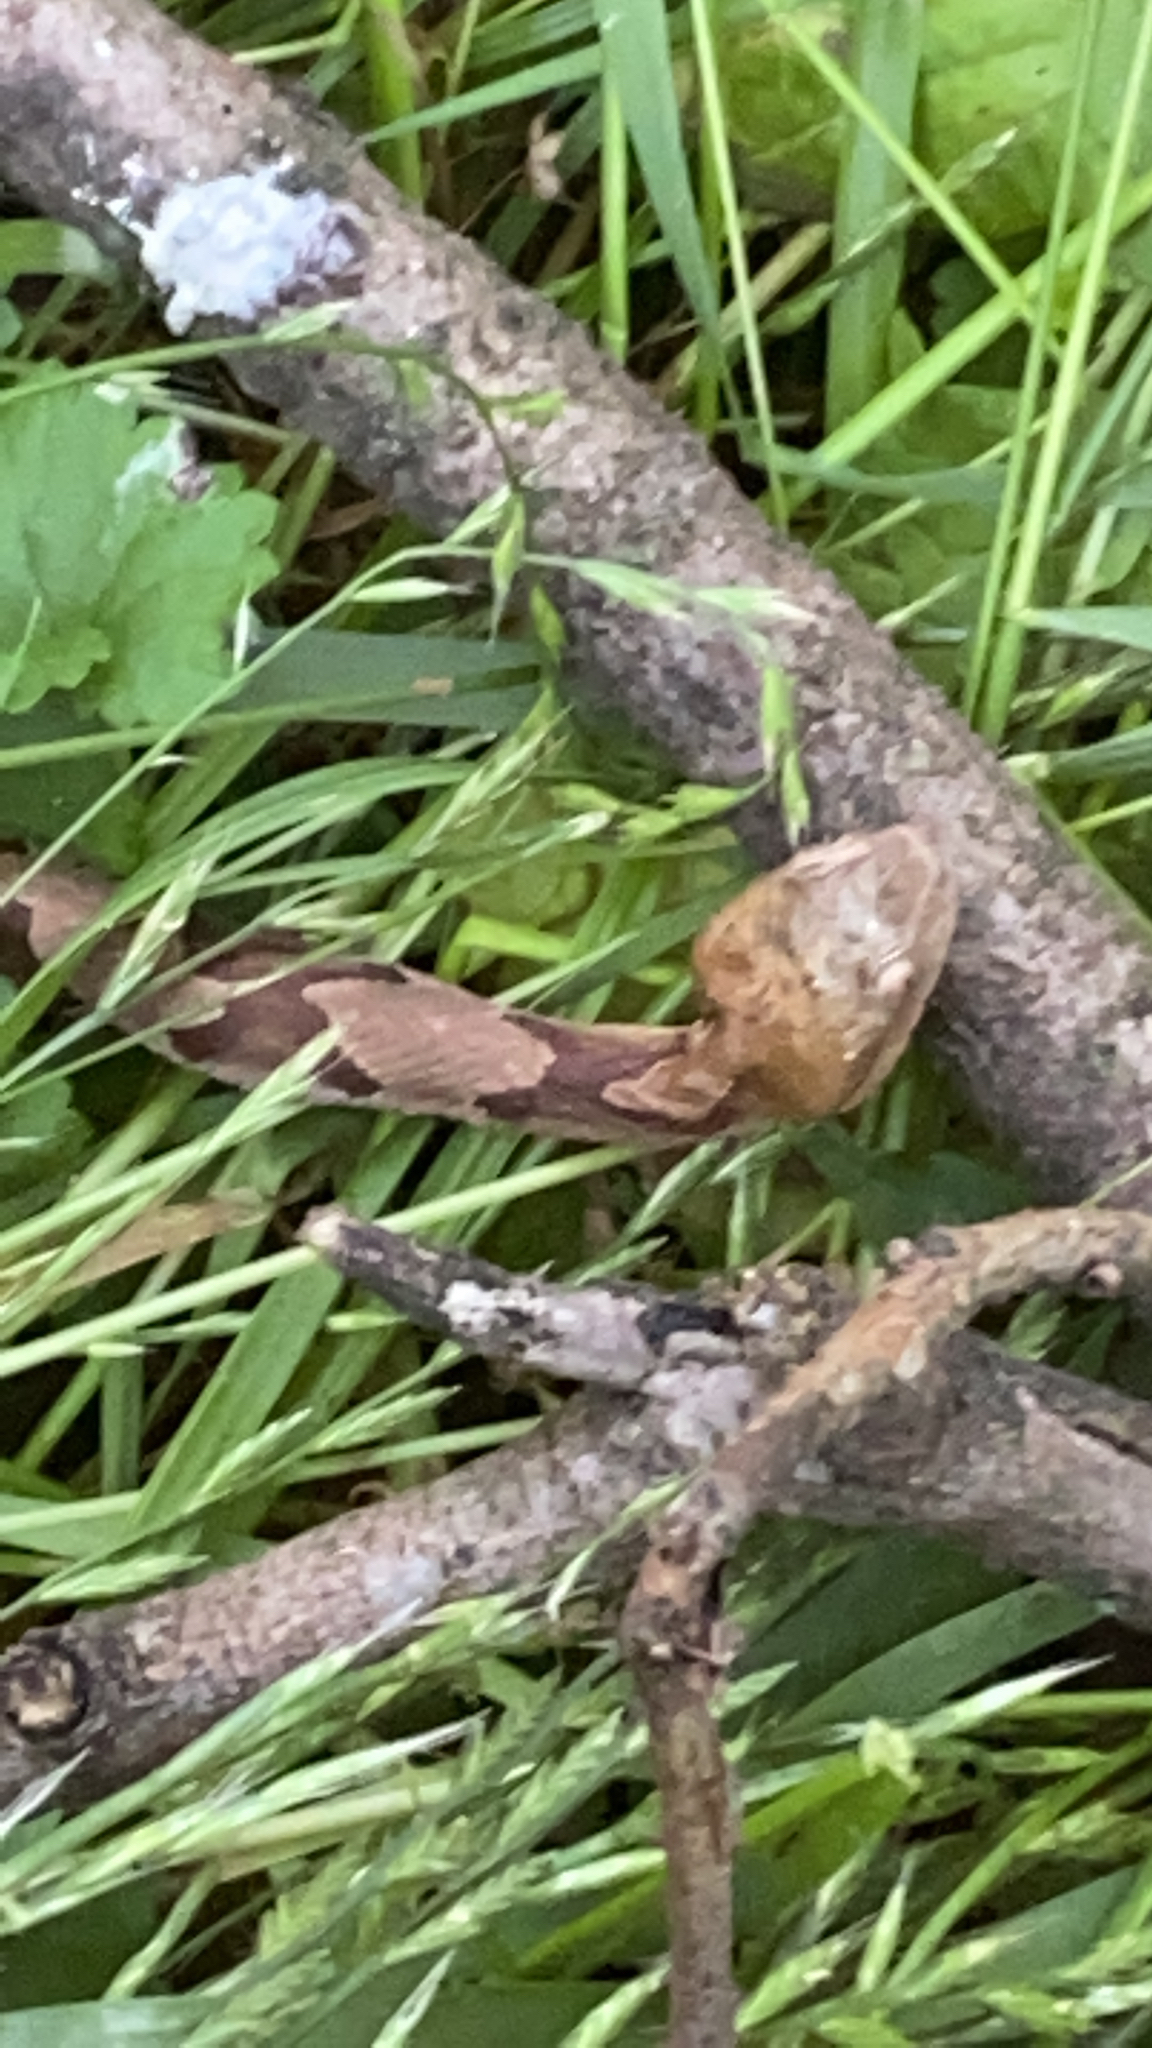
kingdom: Animalia
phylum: Chordata
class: Squamata
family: Viperidae
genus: Agkistrodon
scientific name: Agkistrodon contortrix
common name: Northern copperhead
